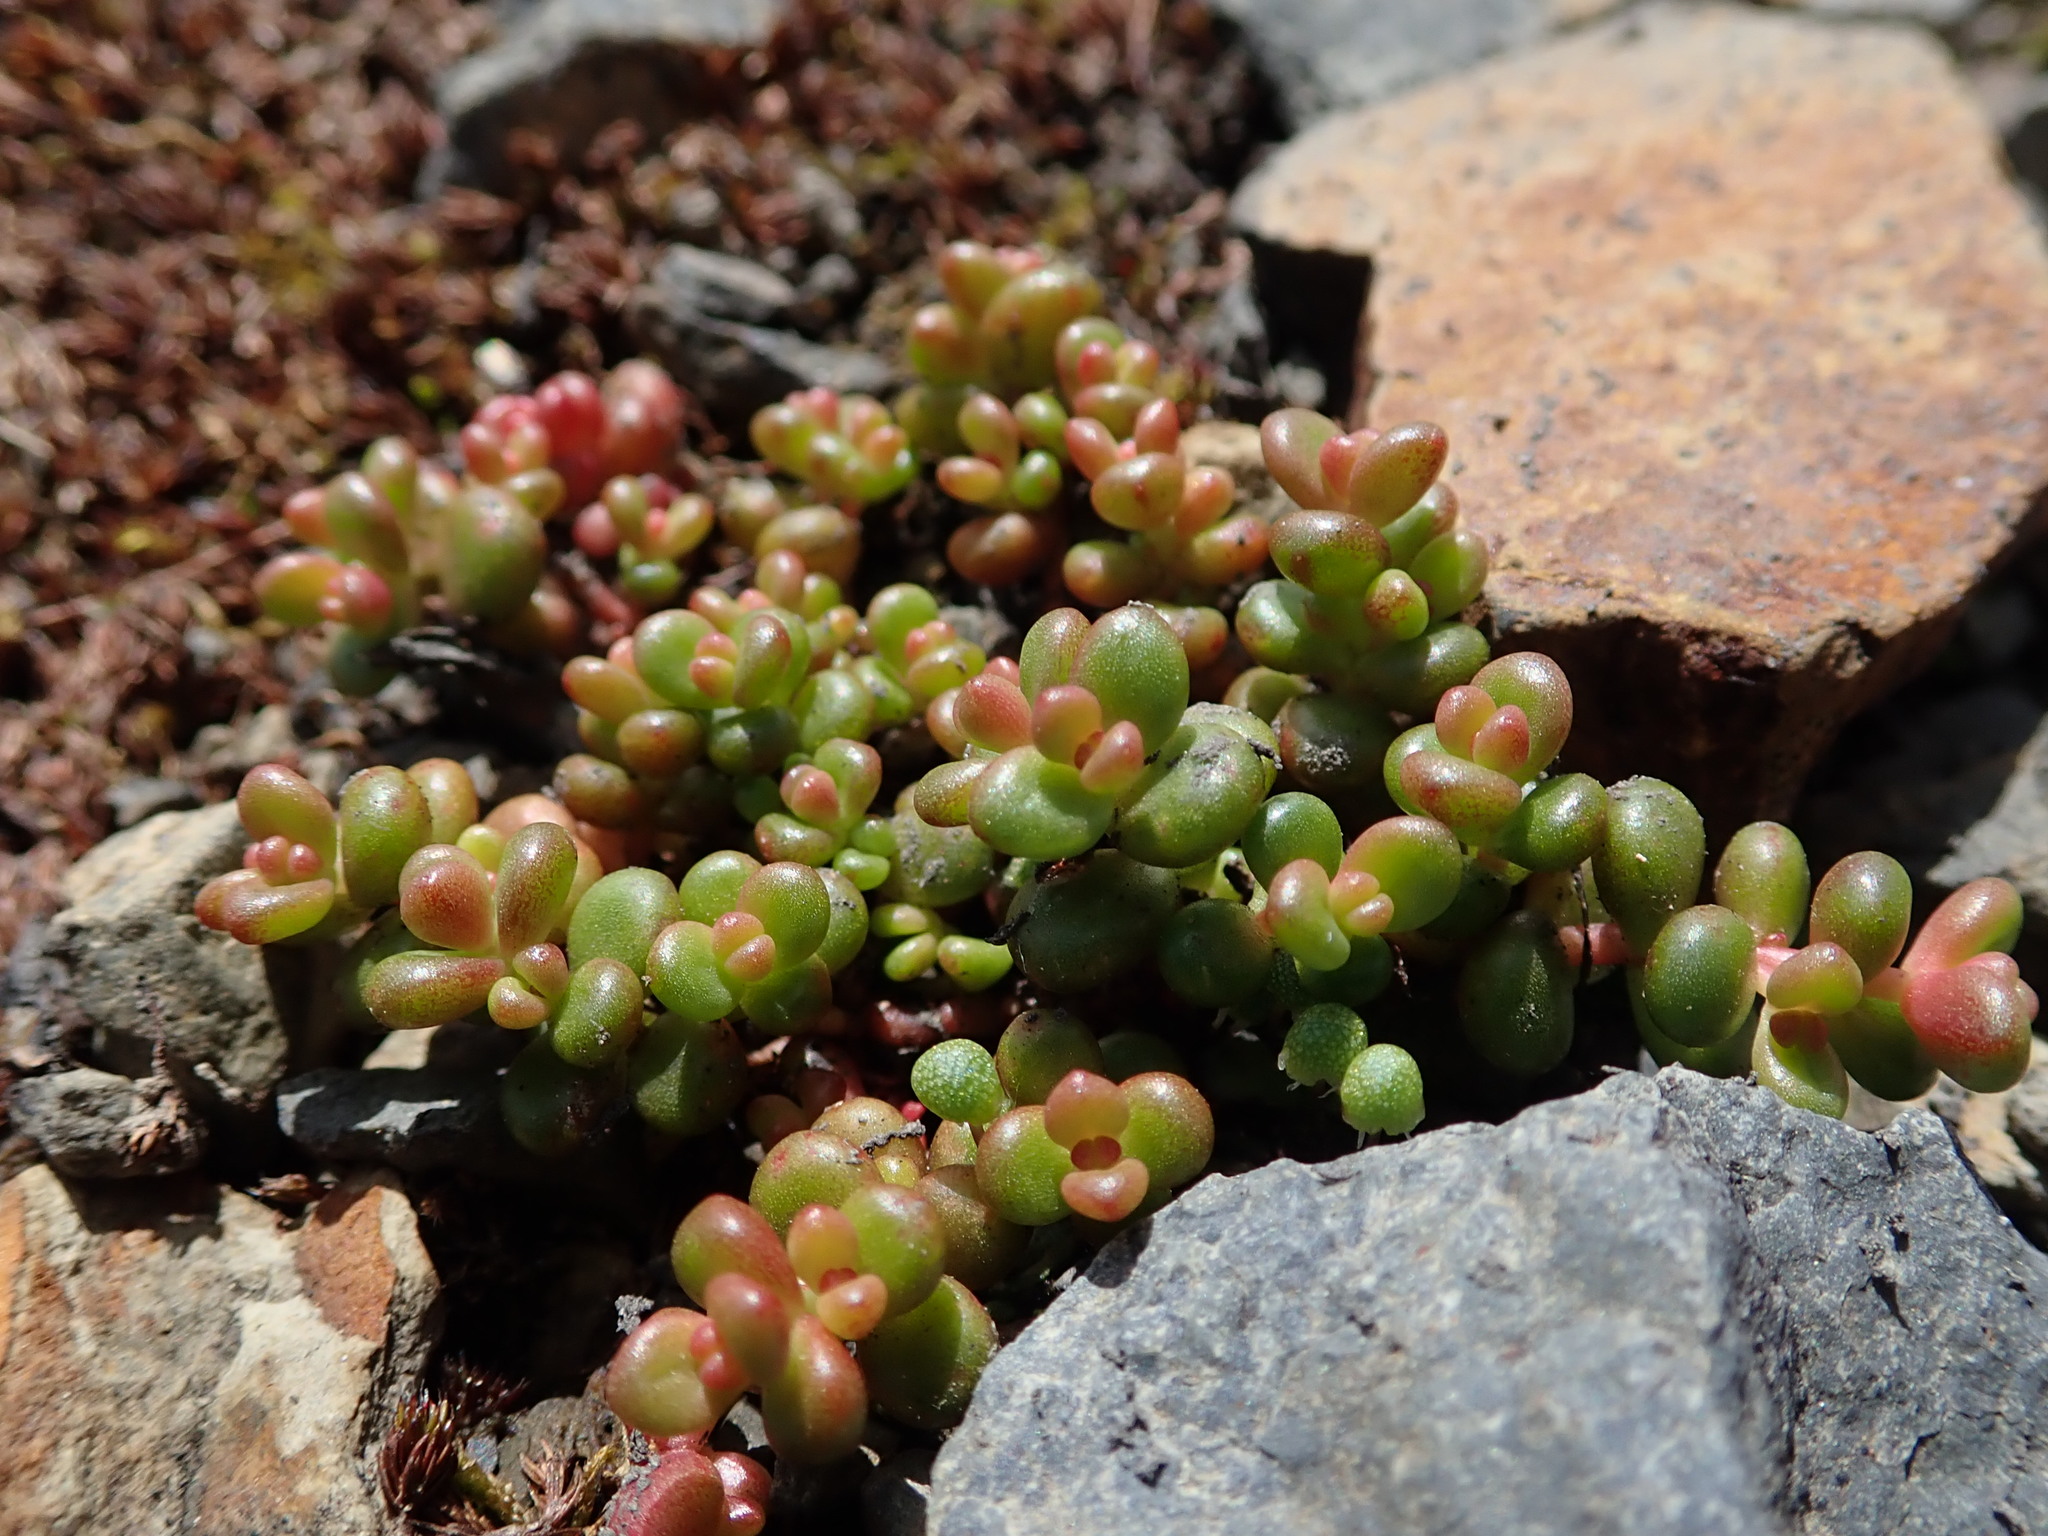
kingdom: Plantae
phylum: Tracheophyta
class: Magnoliopsida
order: Saxifragales
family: Crassulaceae
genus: Sedum
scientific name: Sedum divergens
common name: Cascade stonecrop
